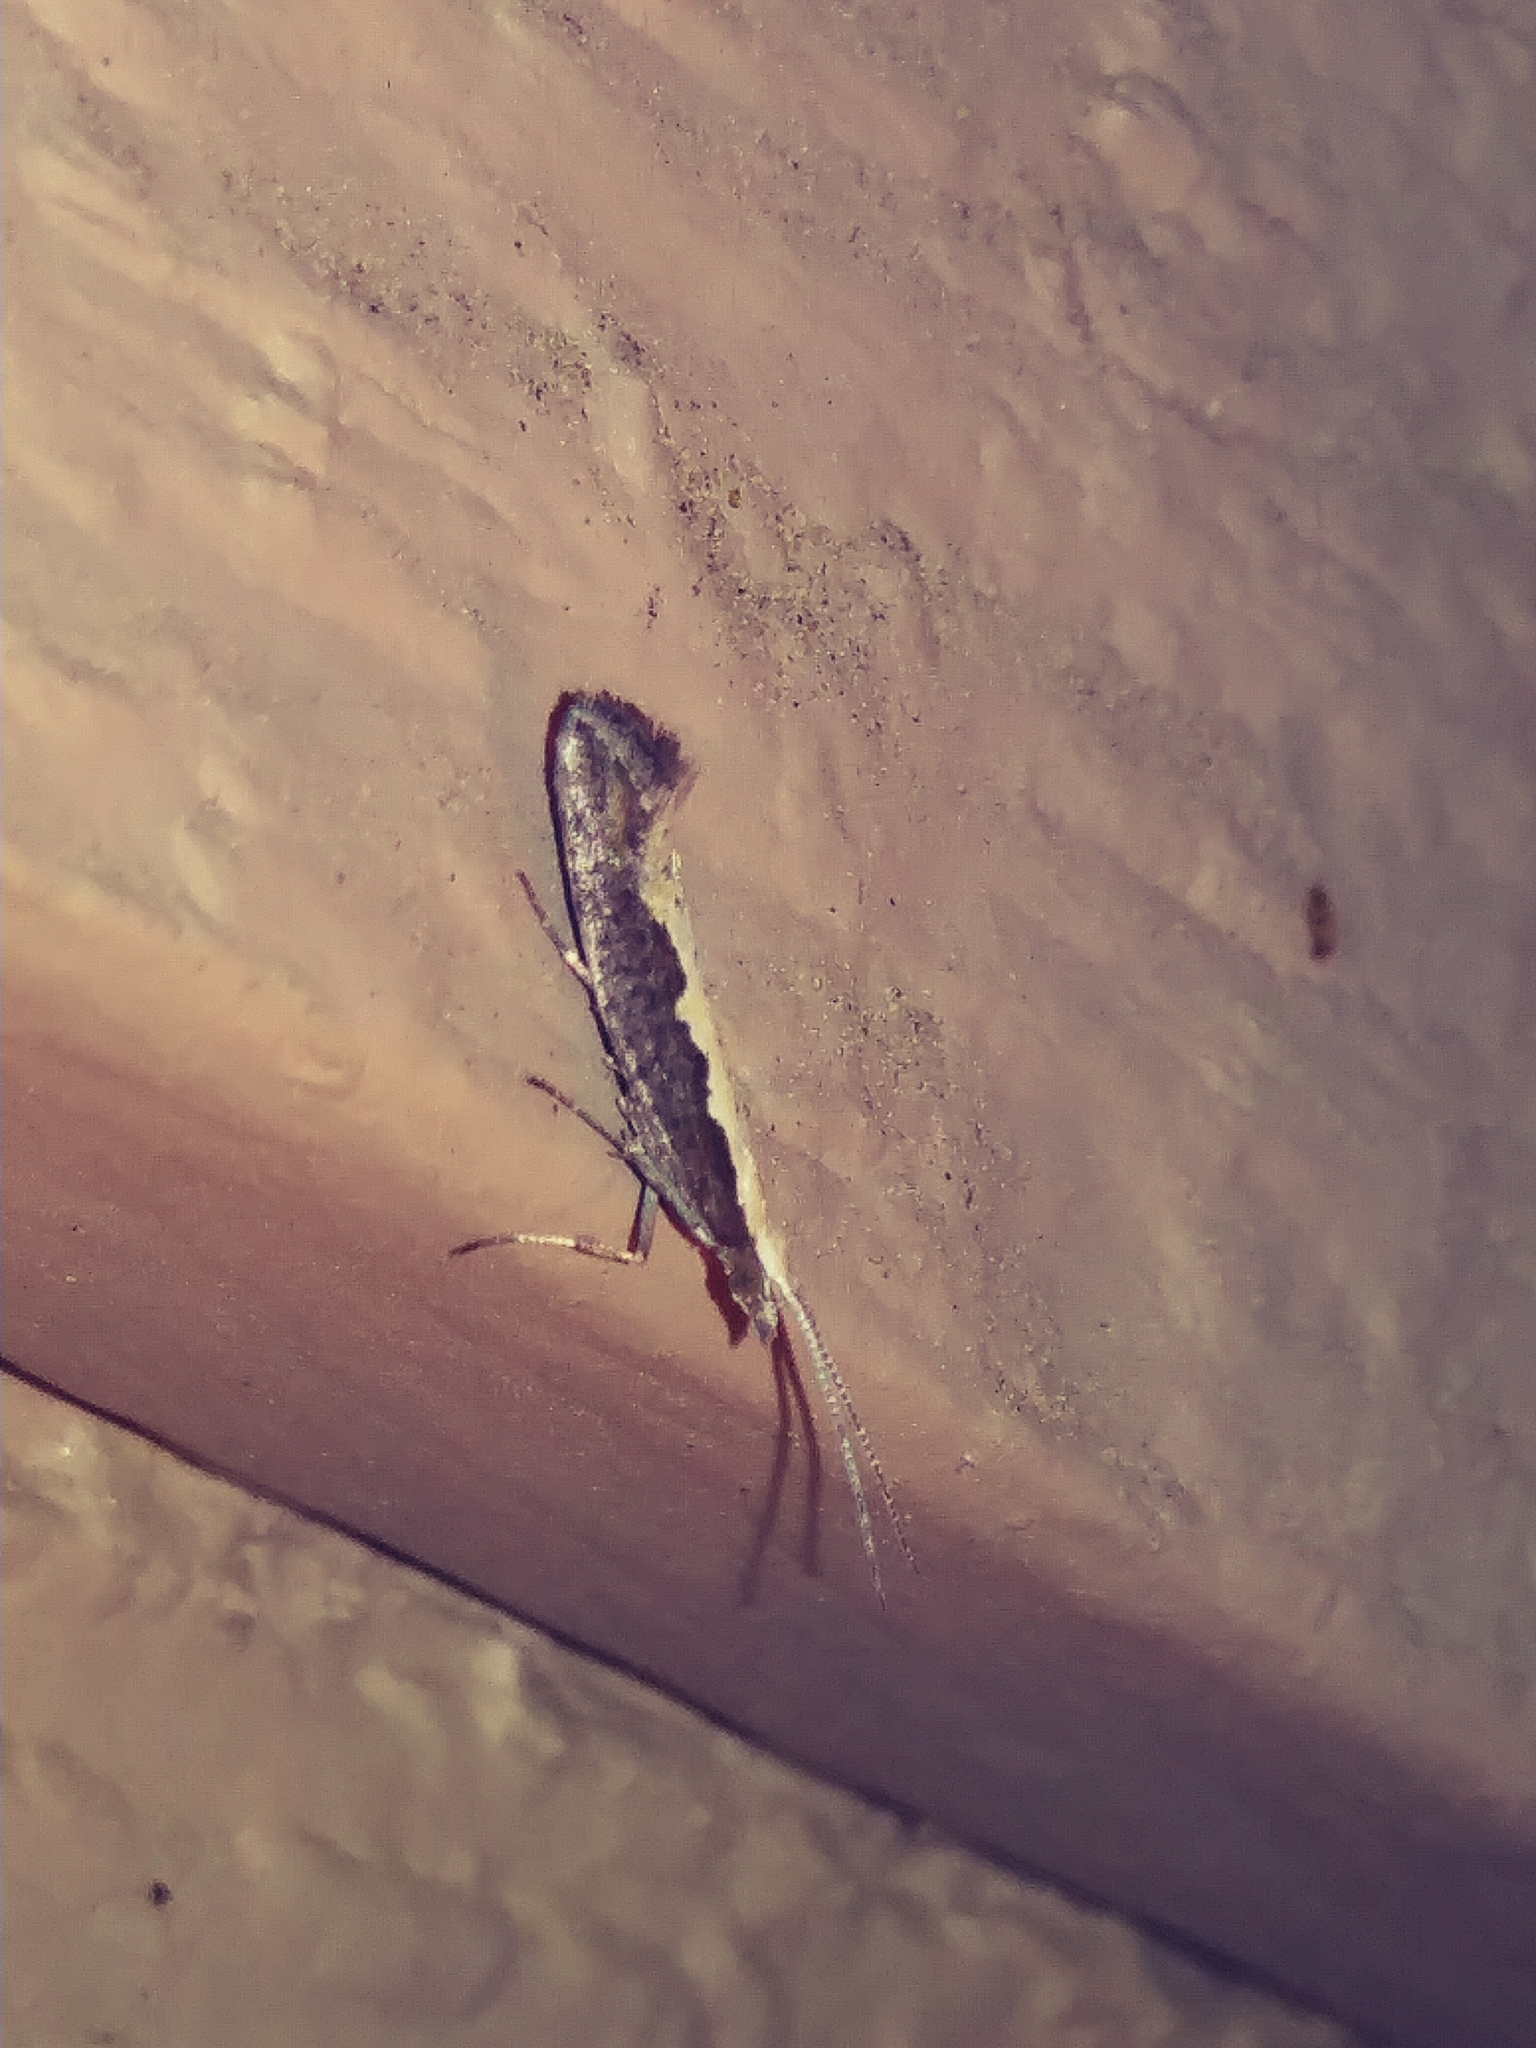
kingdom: Animalia
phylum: Arthropoda
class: Insecta
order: Lepidoptera
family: Plutellidae
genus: Plutella
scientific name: Plutella xylostella
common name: Diamond-back moth
